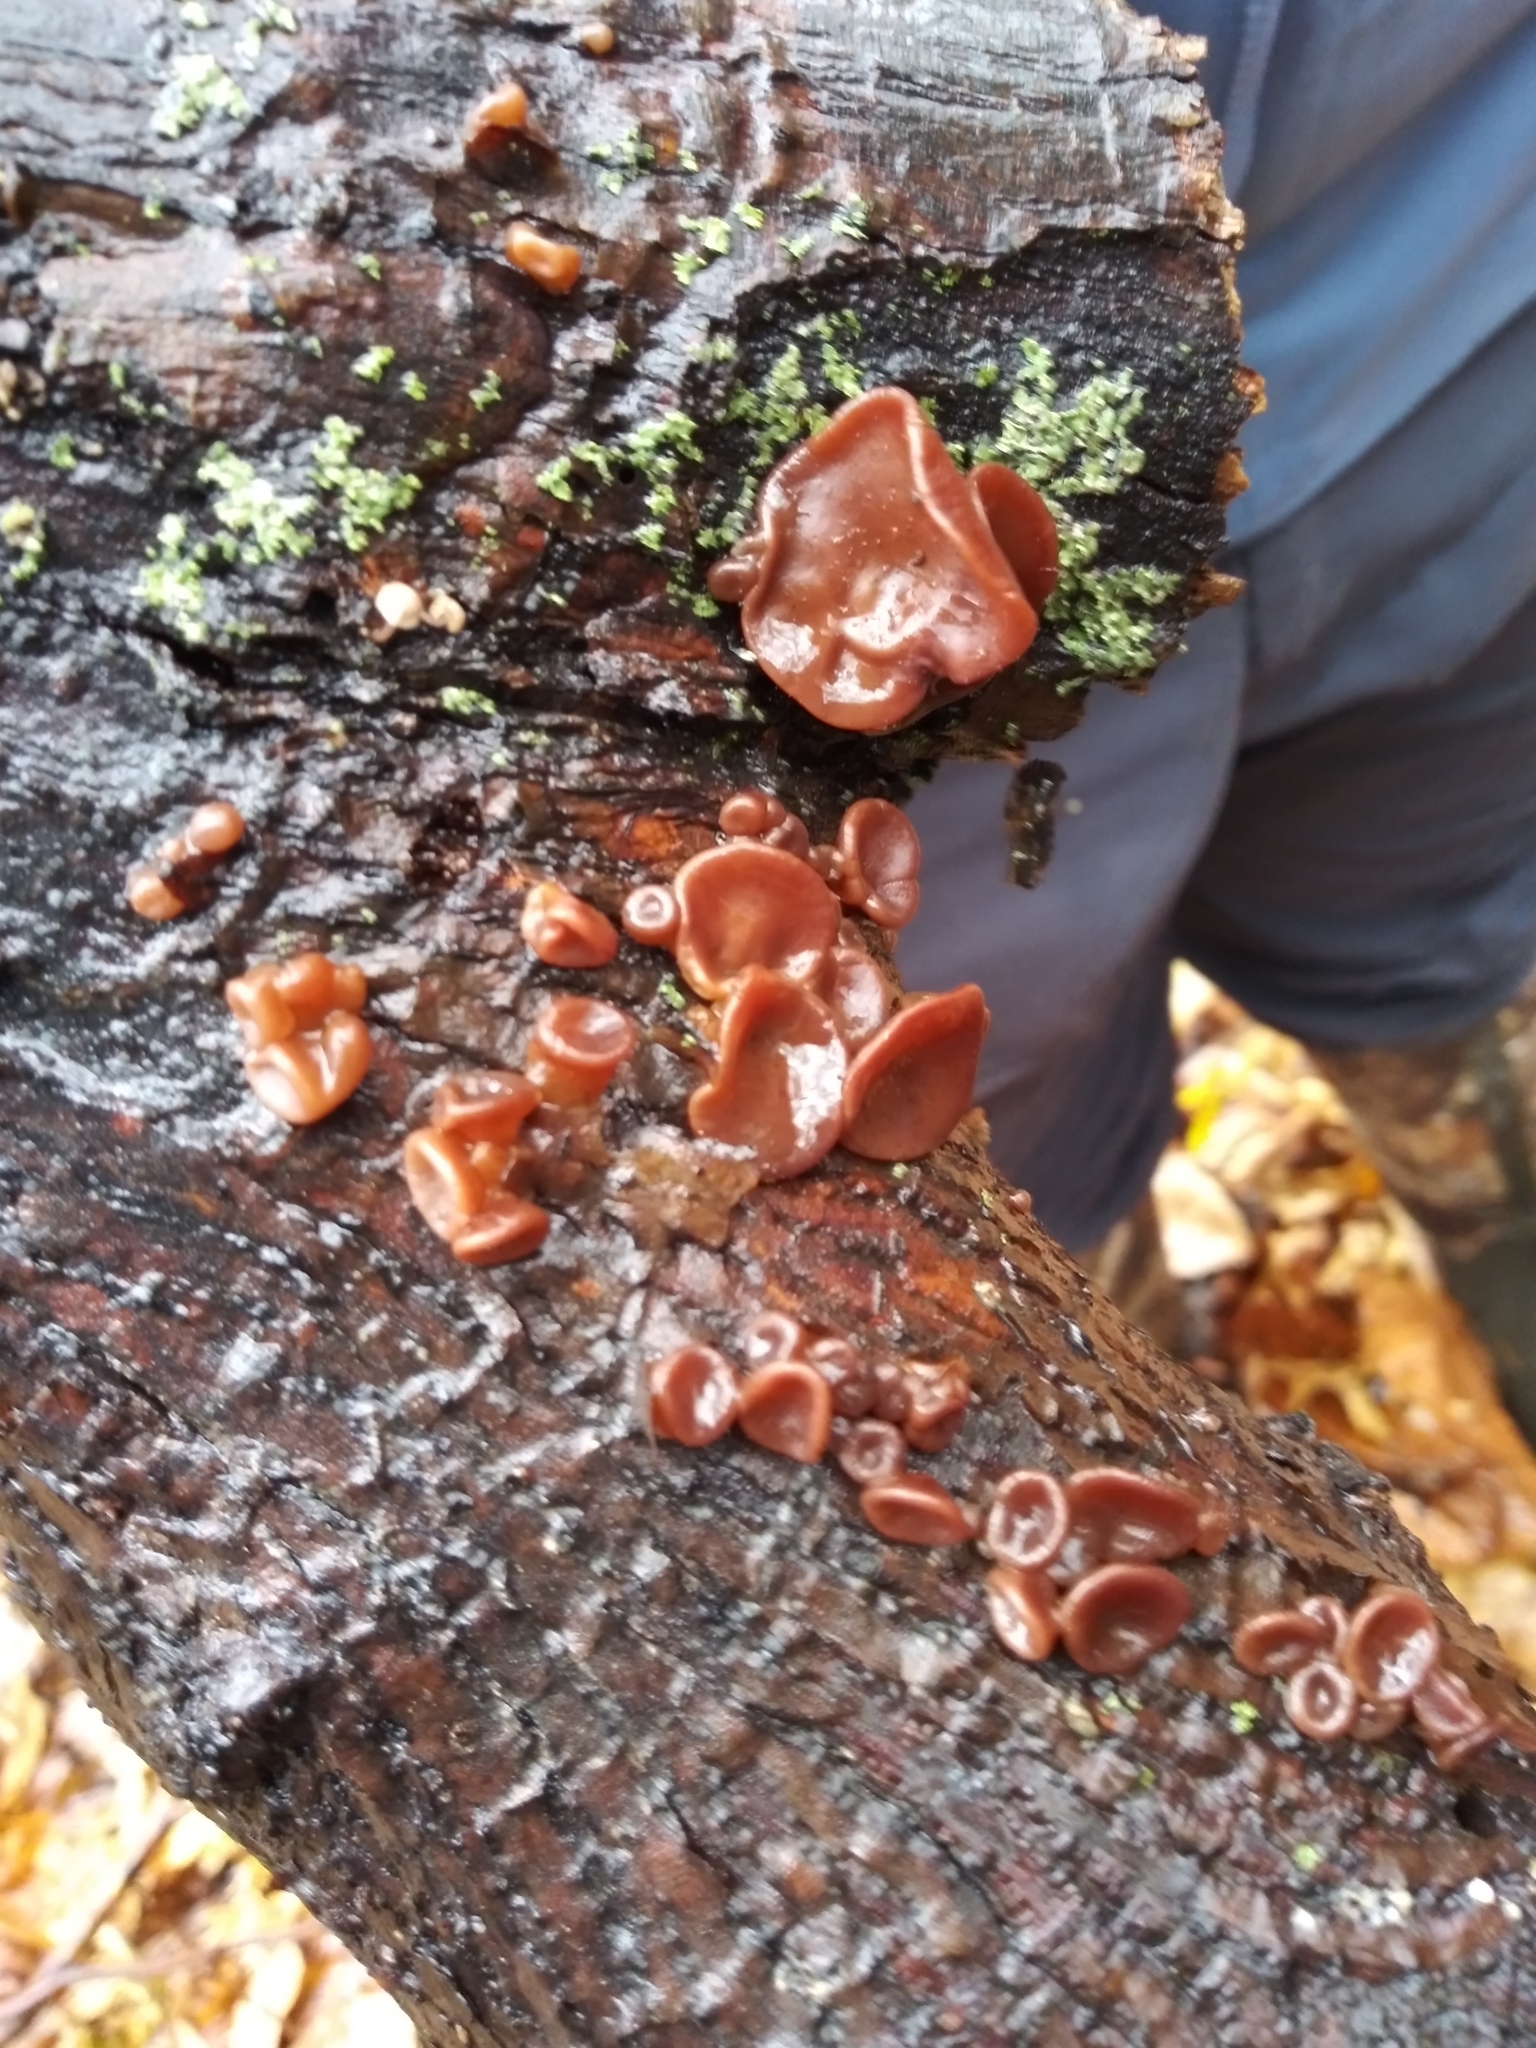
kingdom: Fungi
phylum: Ascomycota
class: Leotiomycetes
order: Helotiales
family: Gelatinodiscaceae
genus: Ascocoryne
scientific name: Ascocoryne cylichnium
